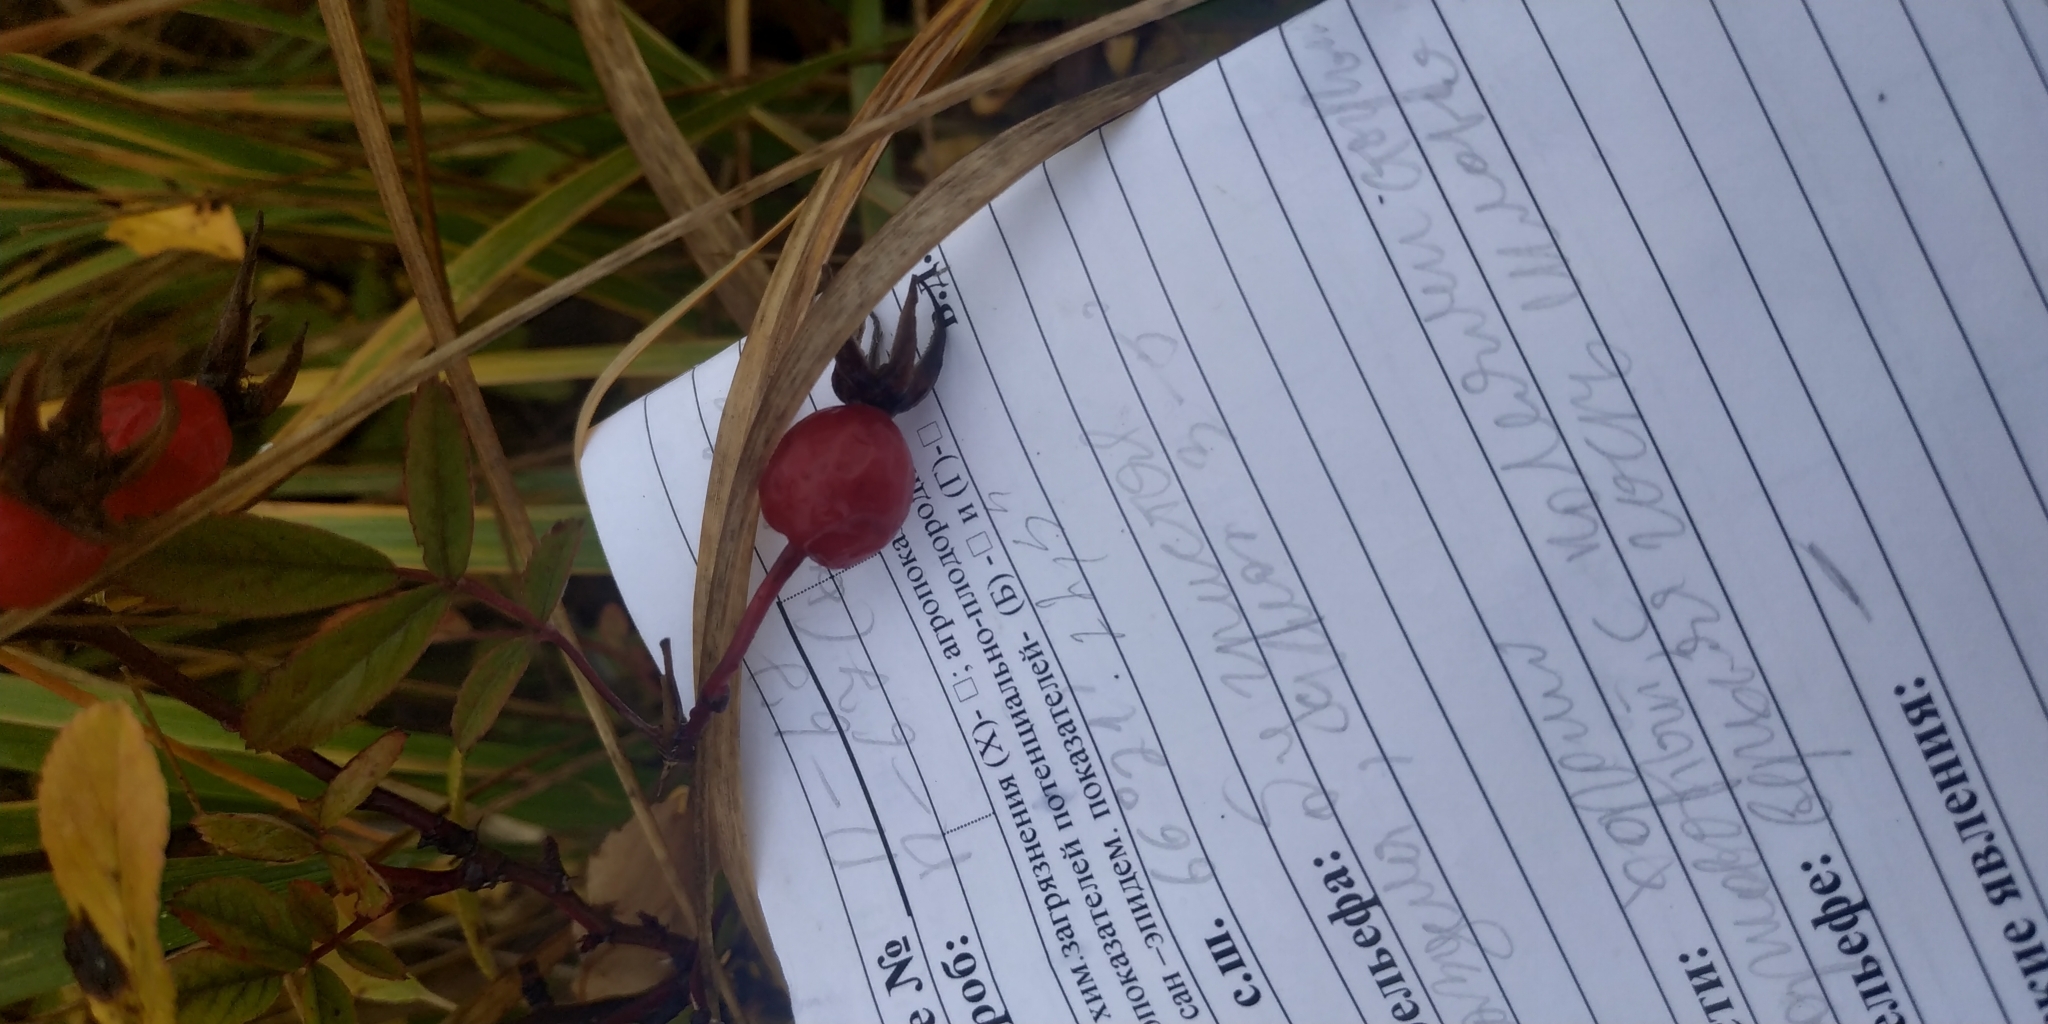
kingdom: Plantae
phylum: Tracheophyta
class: Magnoliopsida
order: Rosales
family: Rosaceae
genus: Rosa
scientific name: Rosa
